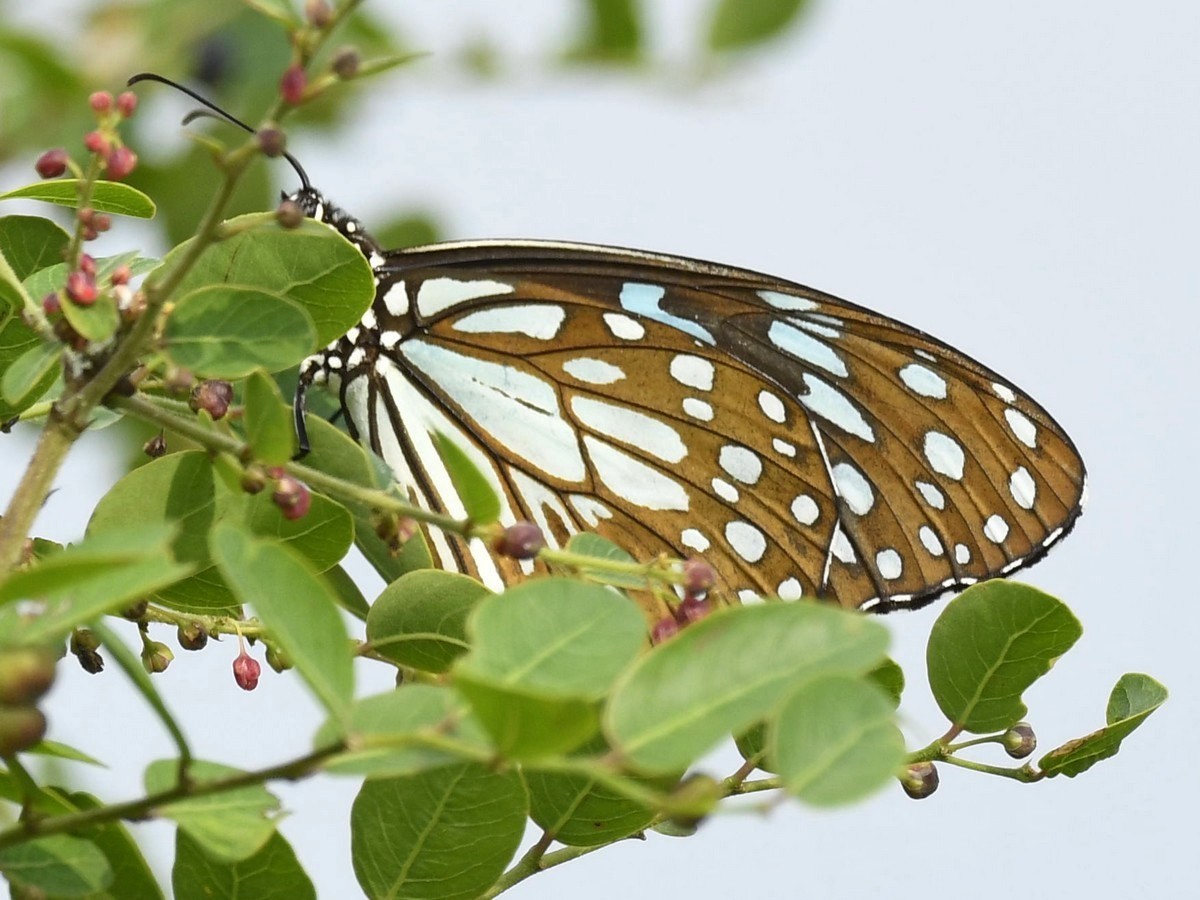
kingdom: Animalia
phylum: Arthropoda
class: Insecta
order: Lepidoptera
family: Nymphalidae
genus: Tirumala
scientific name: Tirumala limniace
